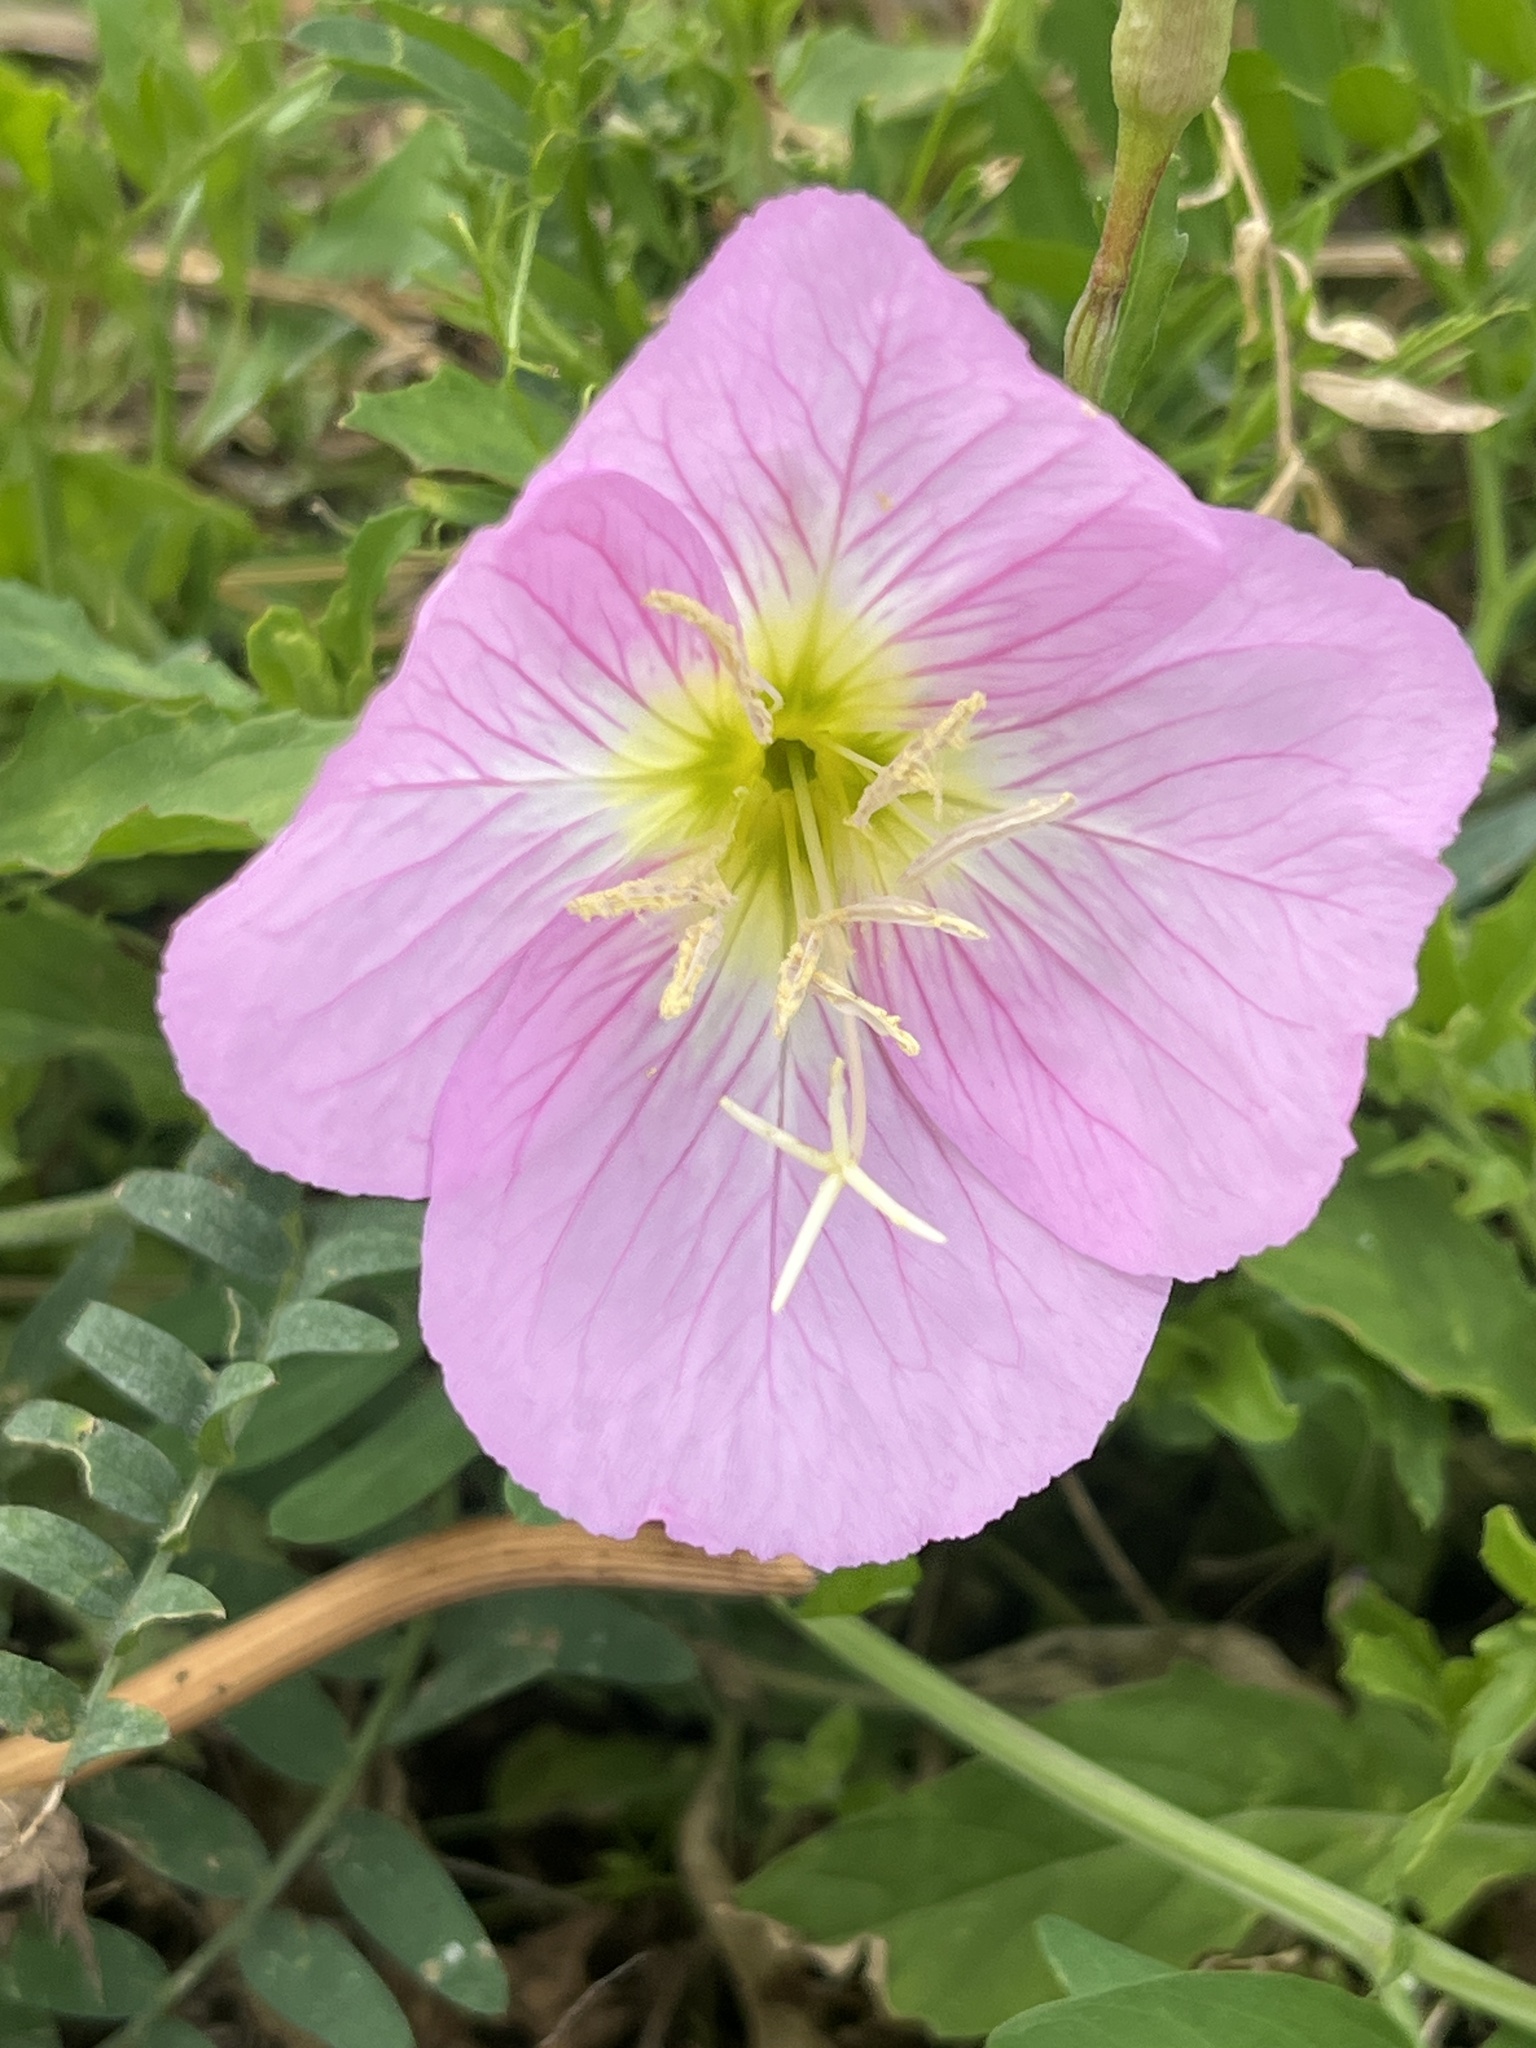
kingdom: Plantae
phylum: Tracheophyta
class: Magnoliopsida
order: Myrtales
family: Onagraceae
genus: Oenothera
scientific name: Oenothera speciosa
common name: White evening-primrose
